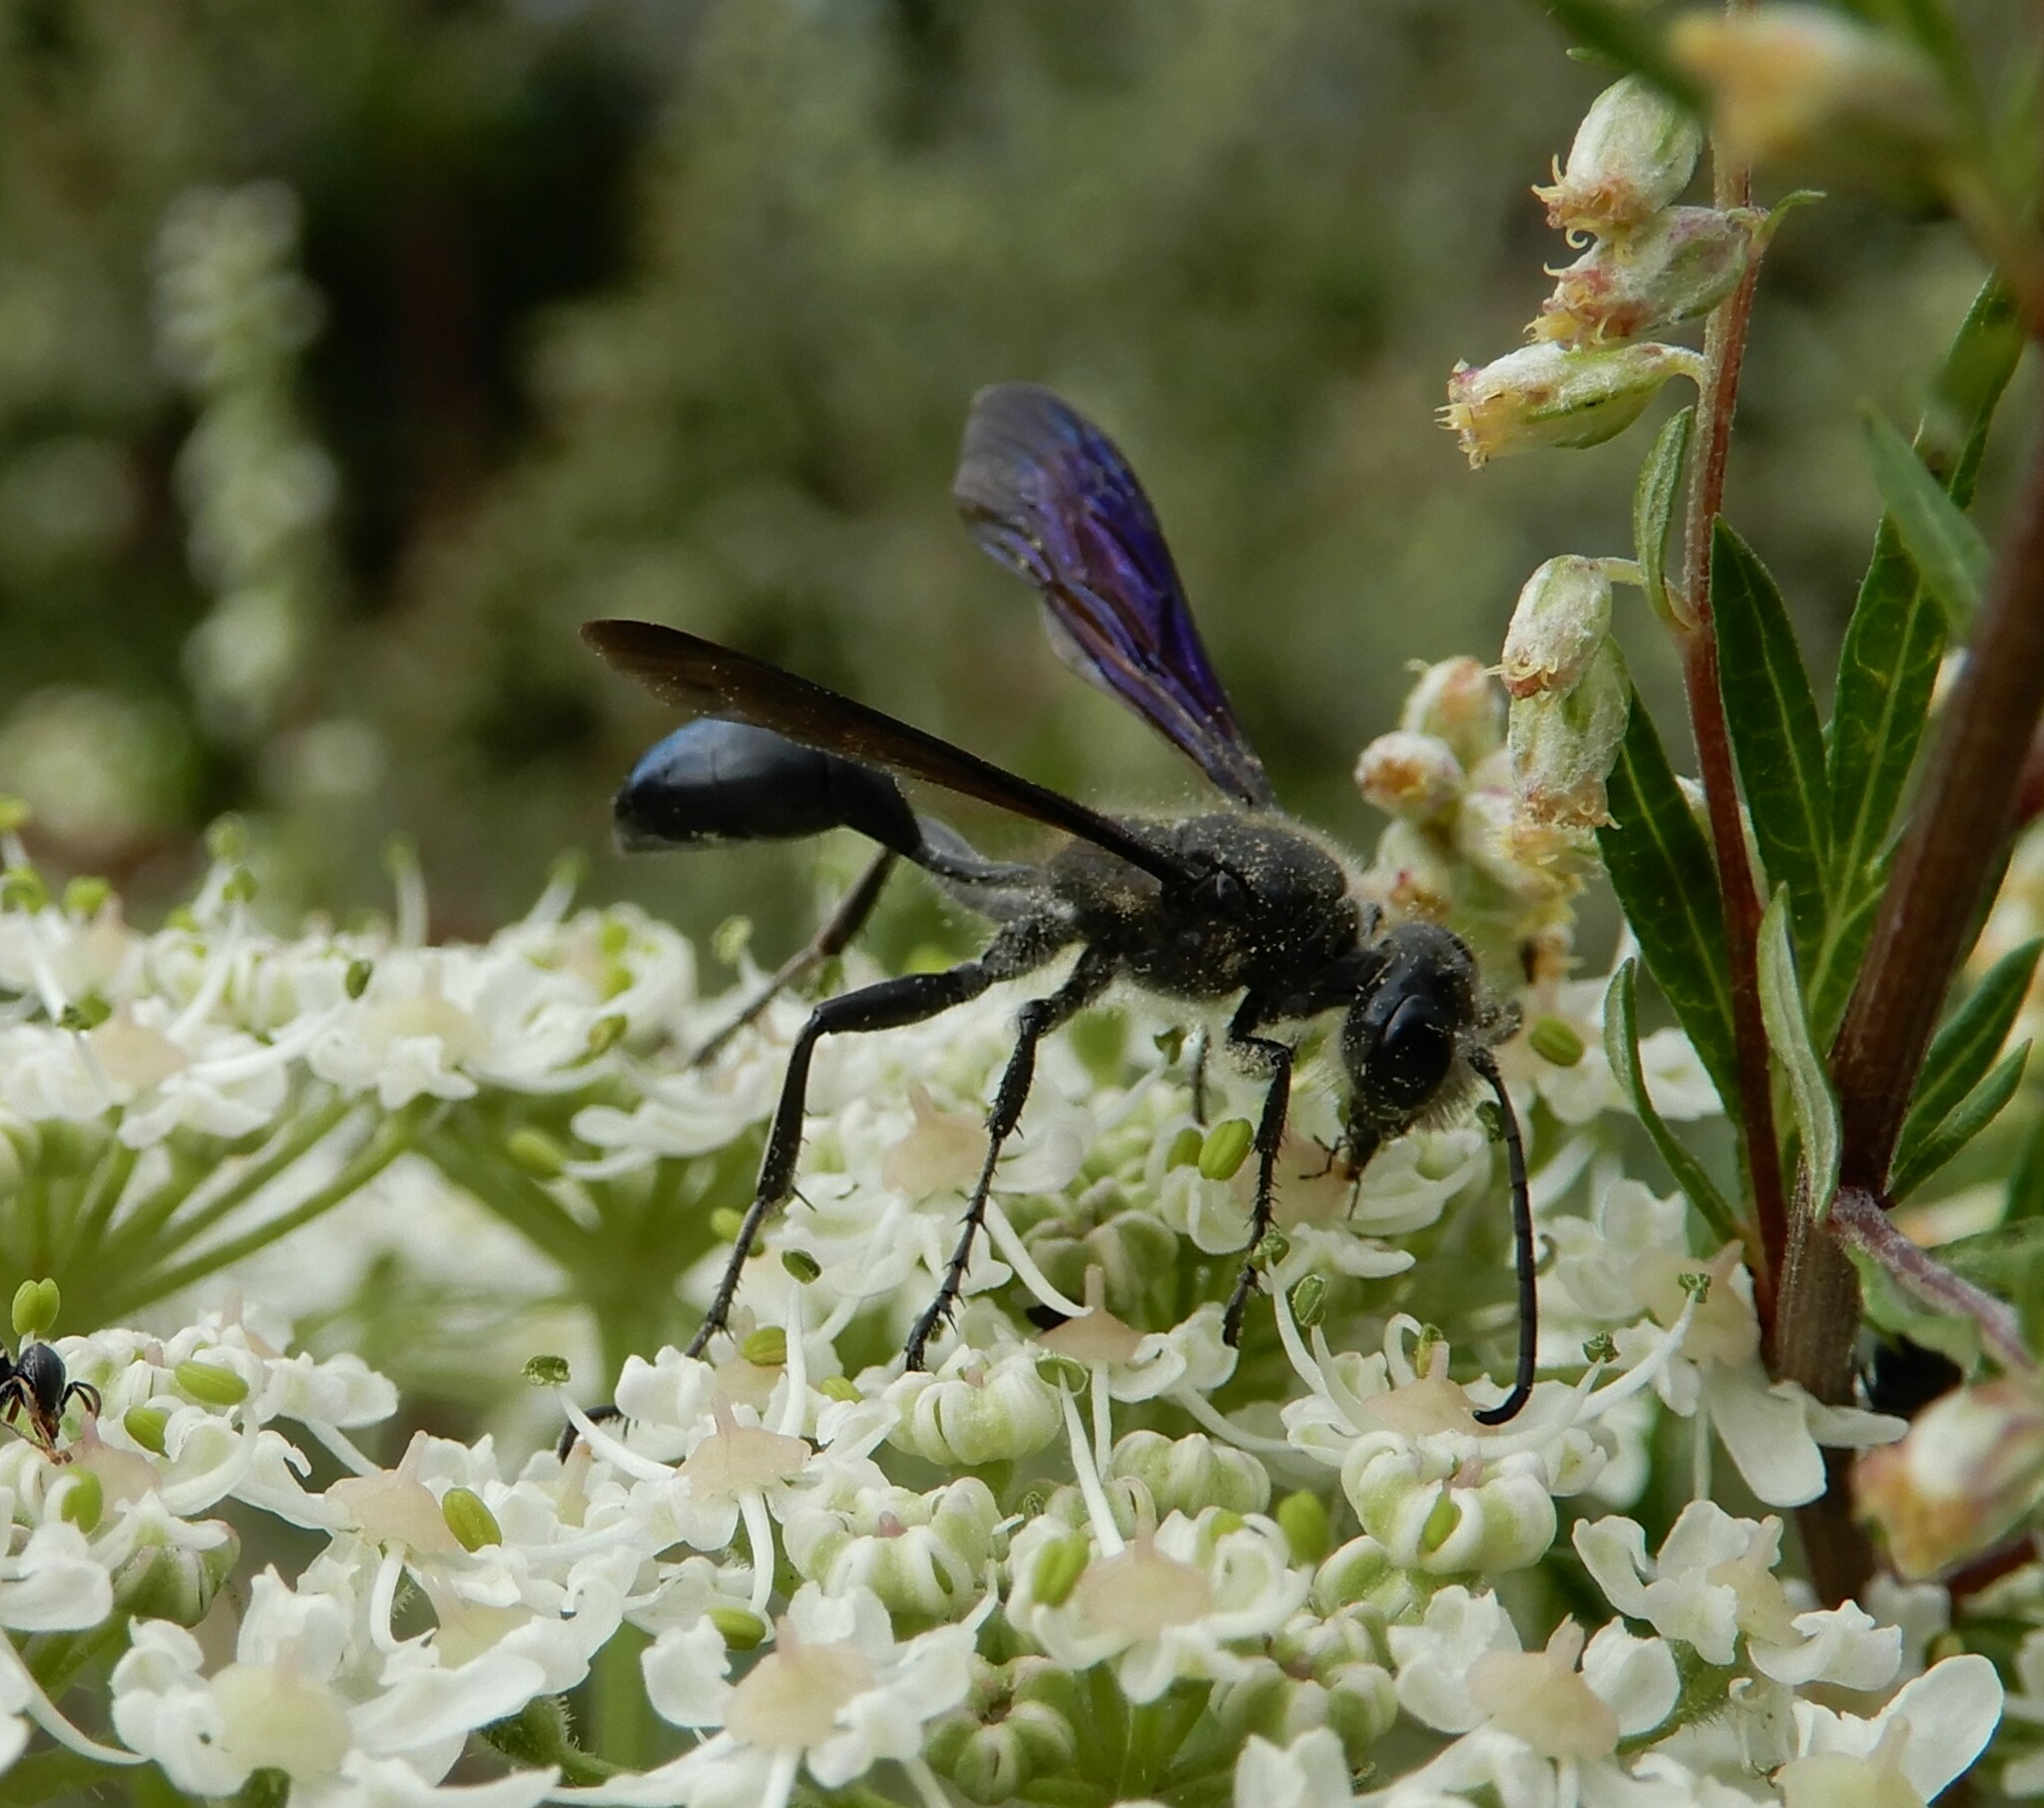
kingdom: Animalia
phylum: Arthropoda
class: Insecta
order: Hymenoptera
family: Sphecidae
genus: Isodontia
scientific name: Isodontia mexicana
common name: Mud dauber
